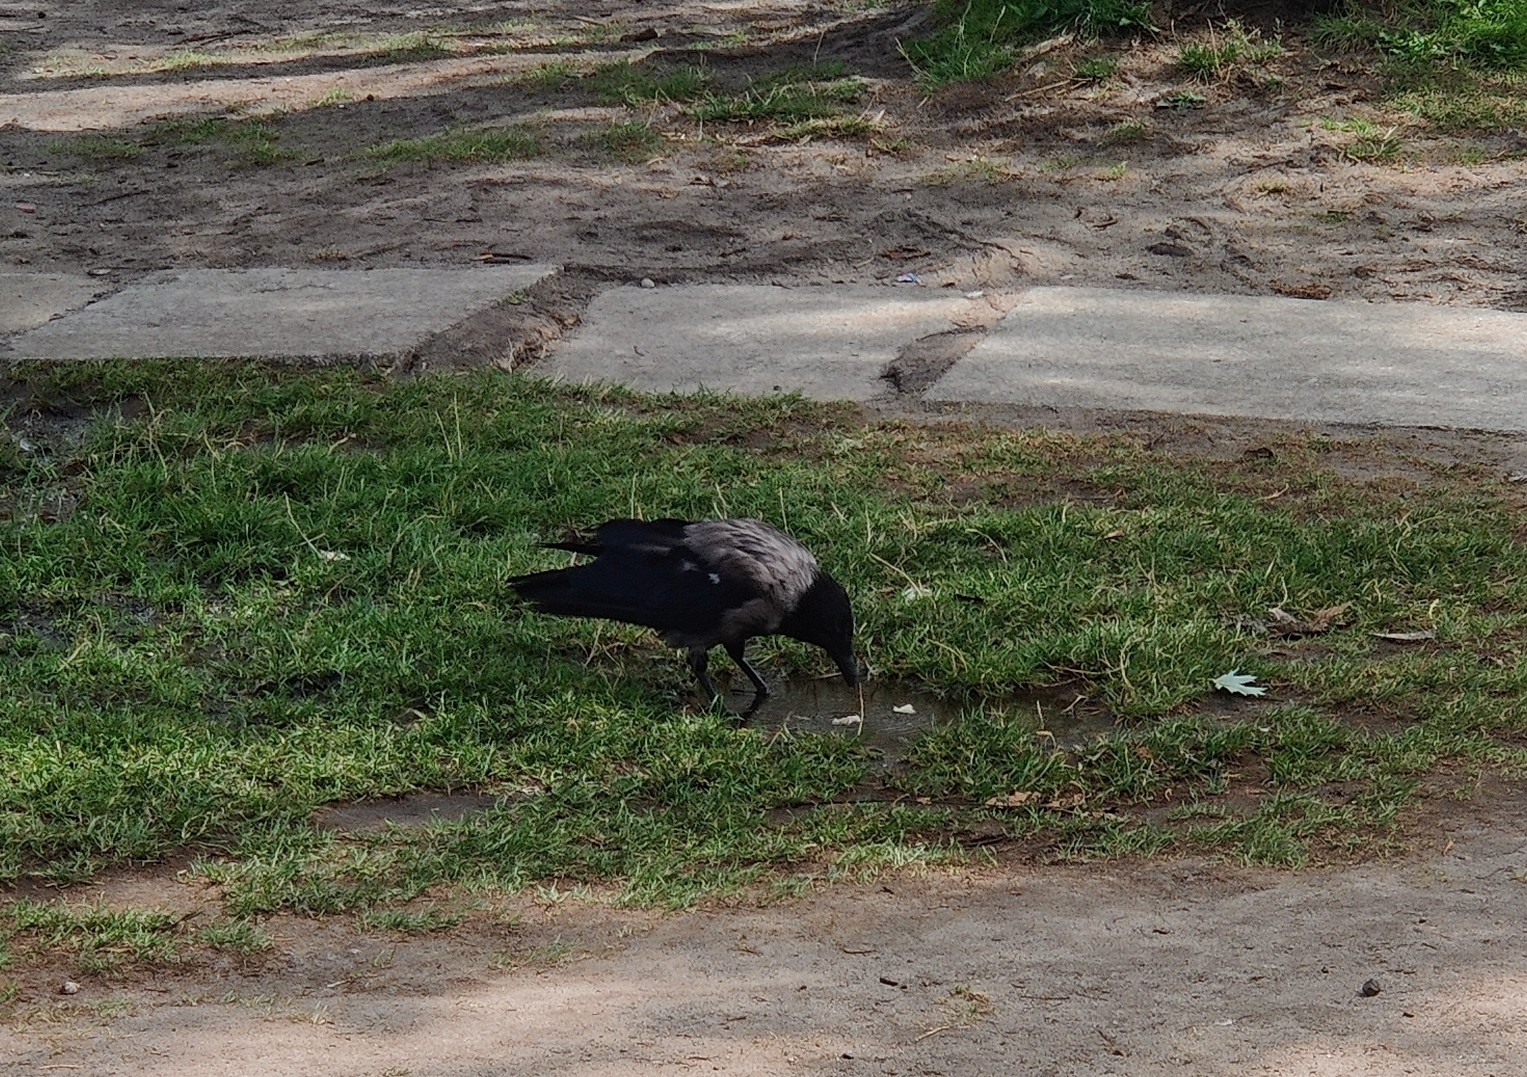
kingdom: Animalia
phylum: Chordata
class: Aves
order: Passeriformes
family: Corvidae
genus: Corvus
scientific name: Corvus cornix
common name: Hooded crow
